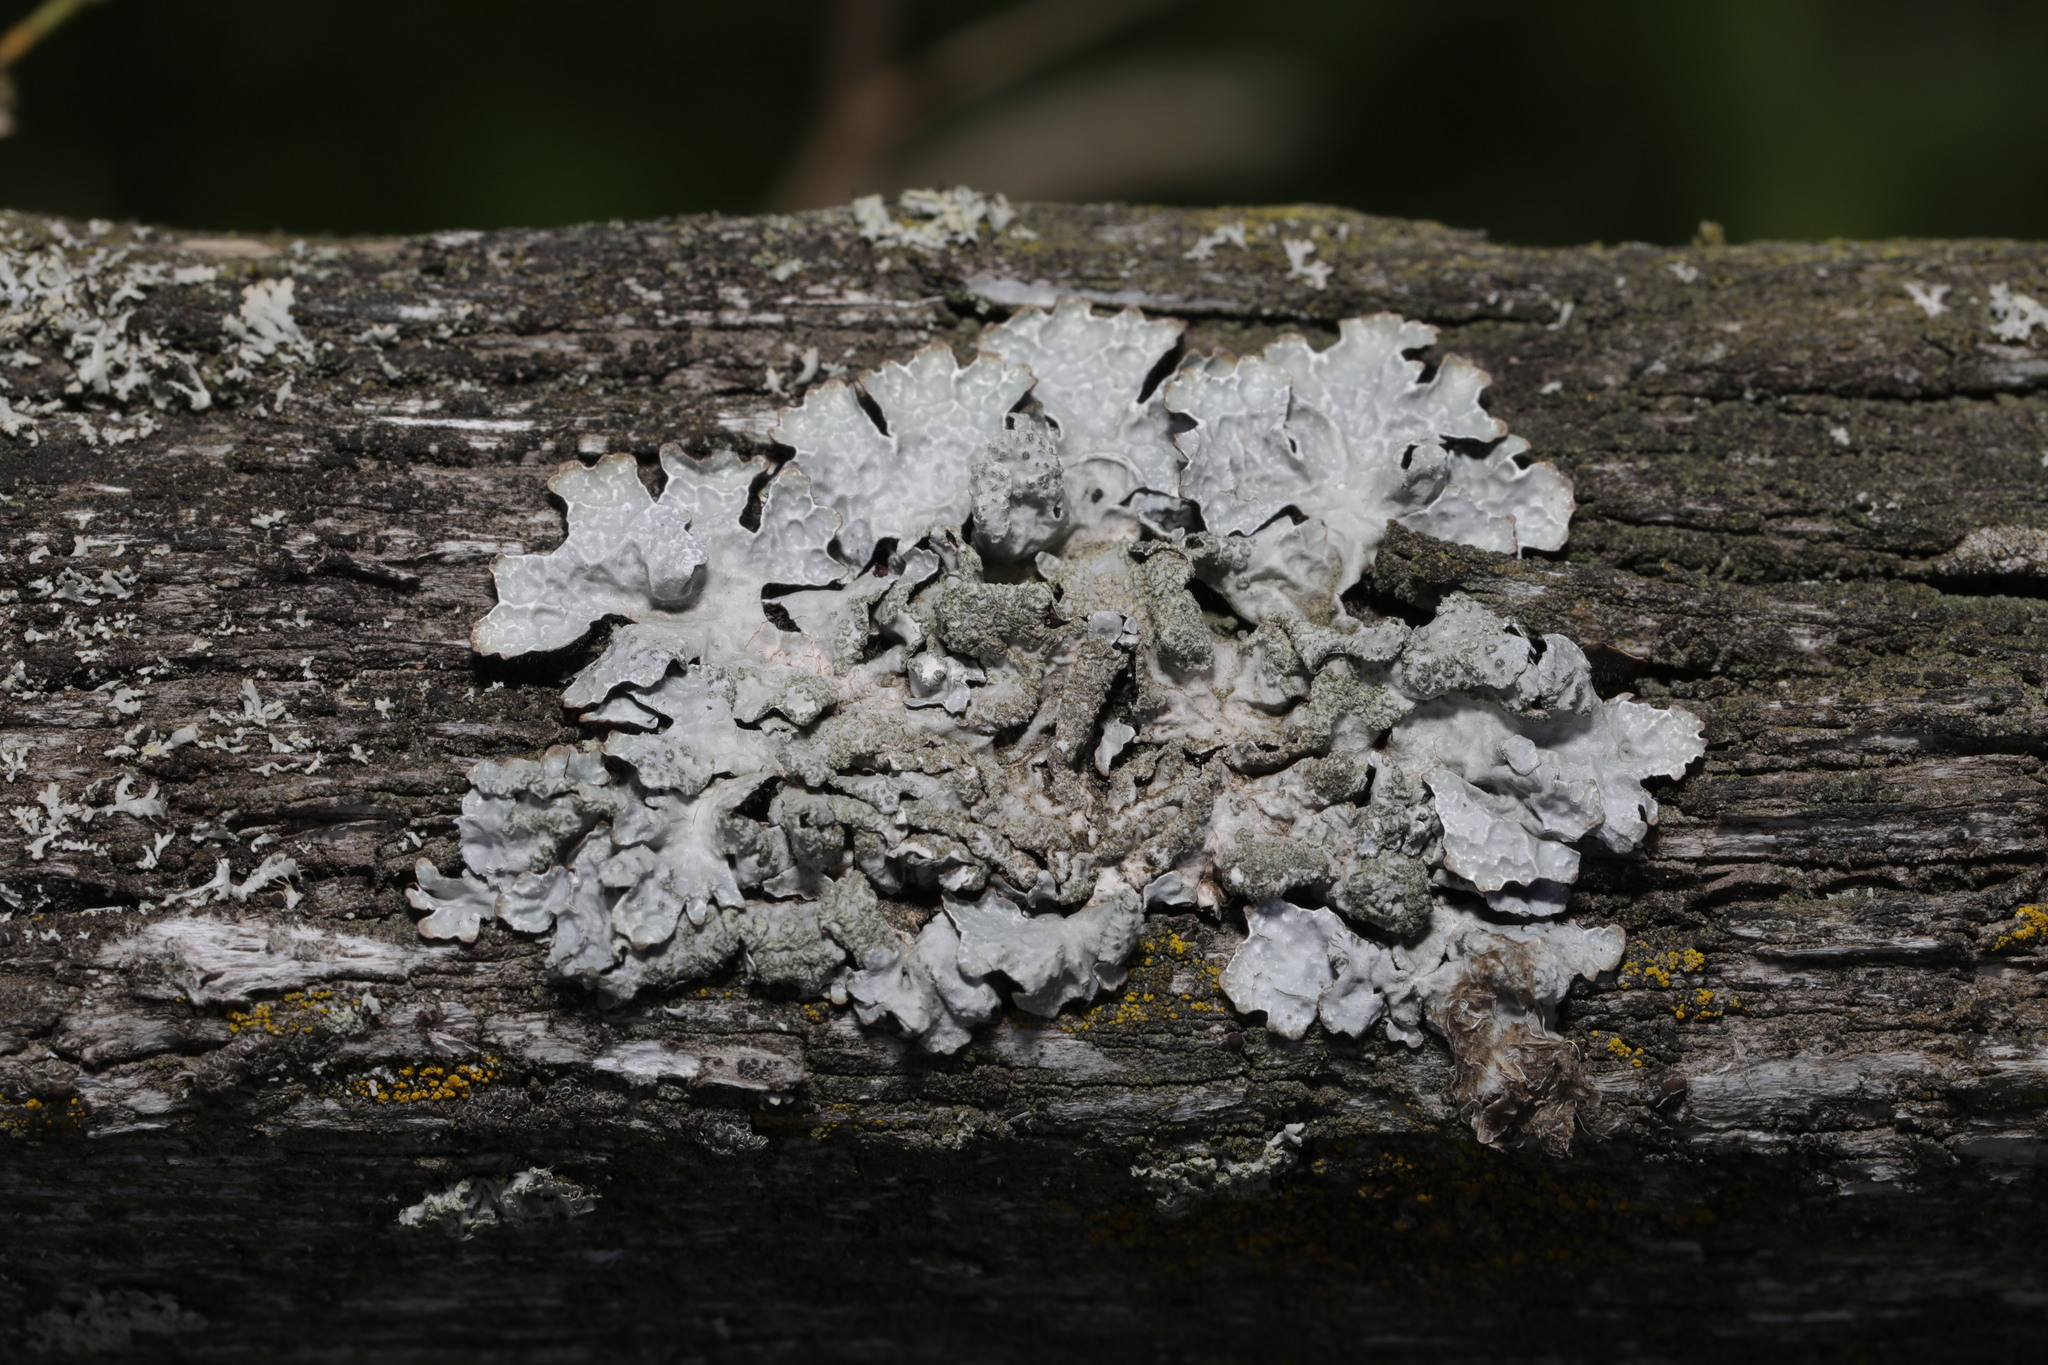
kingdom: Fungi
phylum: Ascomycota
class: Lecanoromycetes
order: Lecanorales
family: Parmeliaceae
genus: Parmelia
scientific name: Parmelia sulcata
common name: Netted shield lichen
